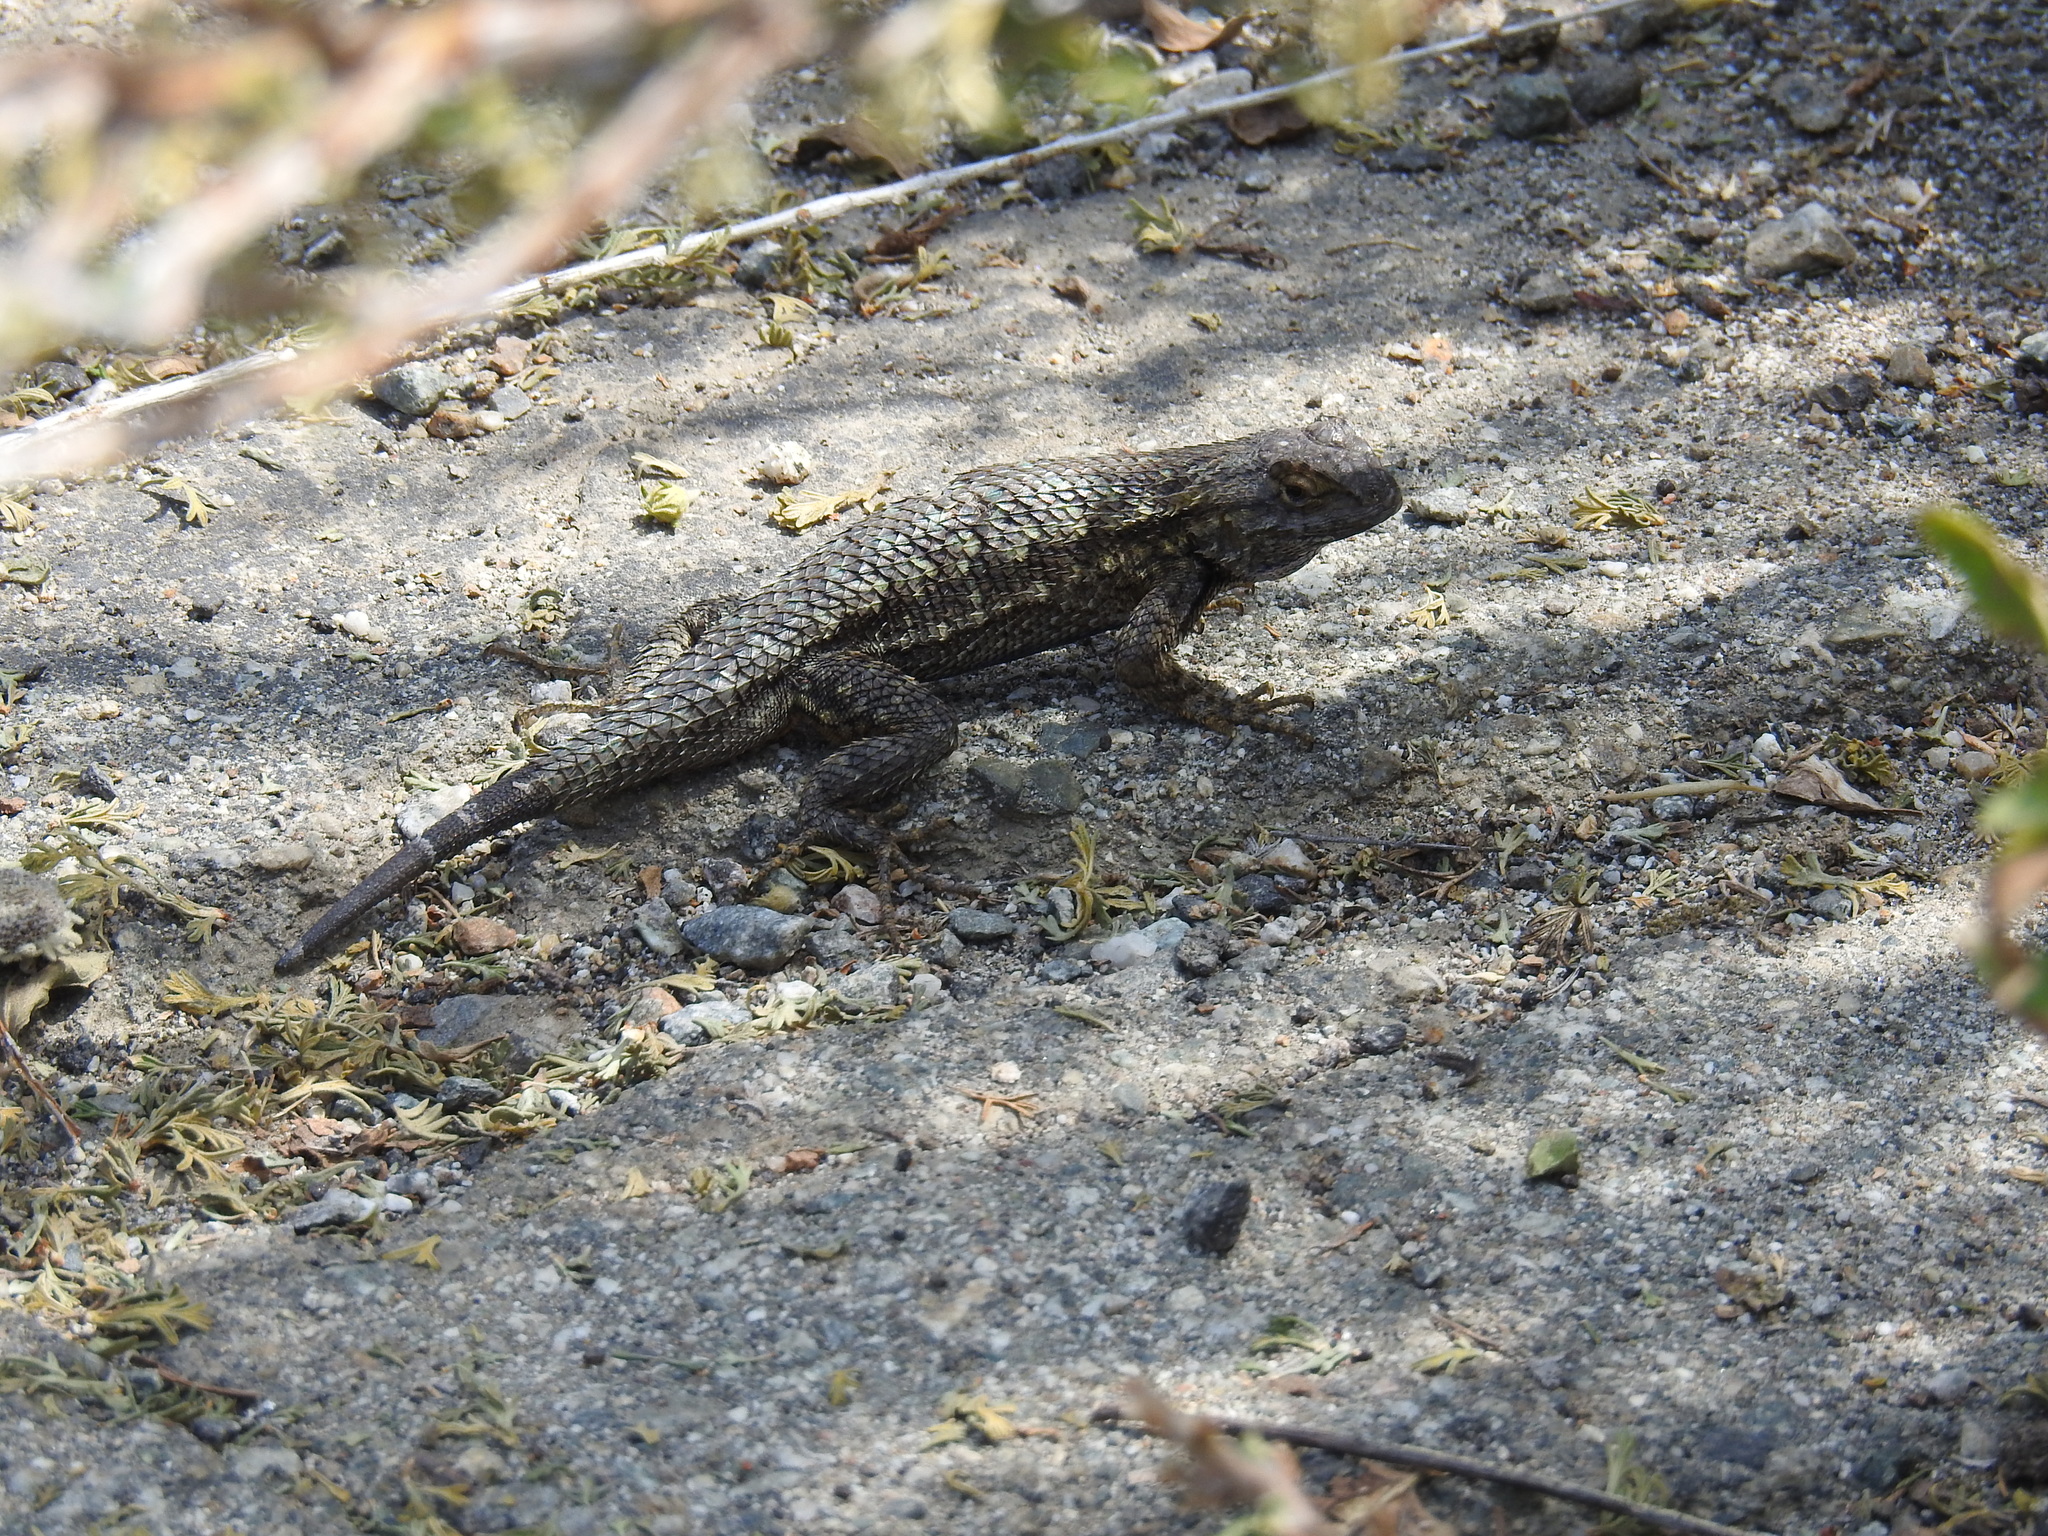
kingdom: Animalia
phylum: Chordata
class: Squamata
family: Phrynosomatidae
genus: Sceloporus
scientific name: Sceloporus occidentalis
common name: Western fence lizard
